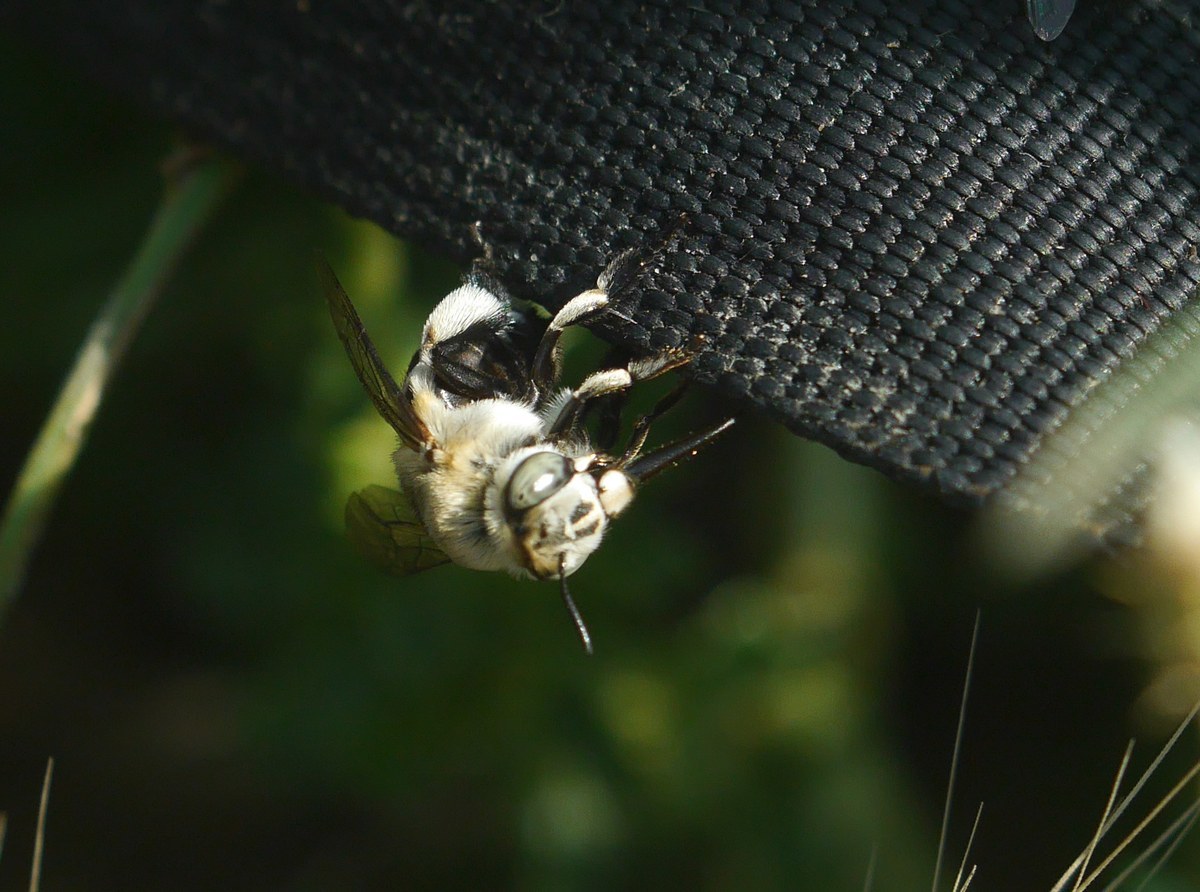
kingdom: Animalia
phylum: Arthropoda
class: Insecta
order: Hymenoptera
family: Apidae
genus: Amegilla
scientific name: Amegilla quadrifasciata
